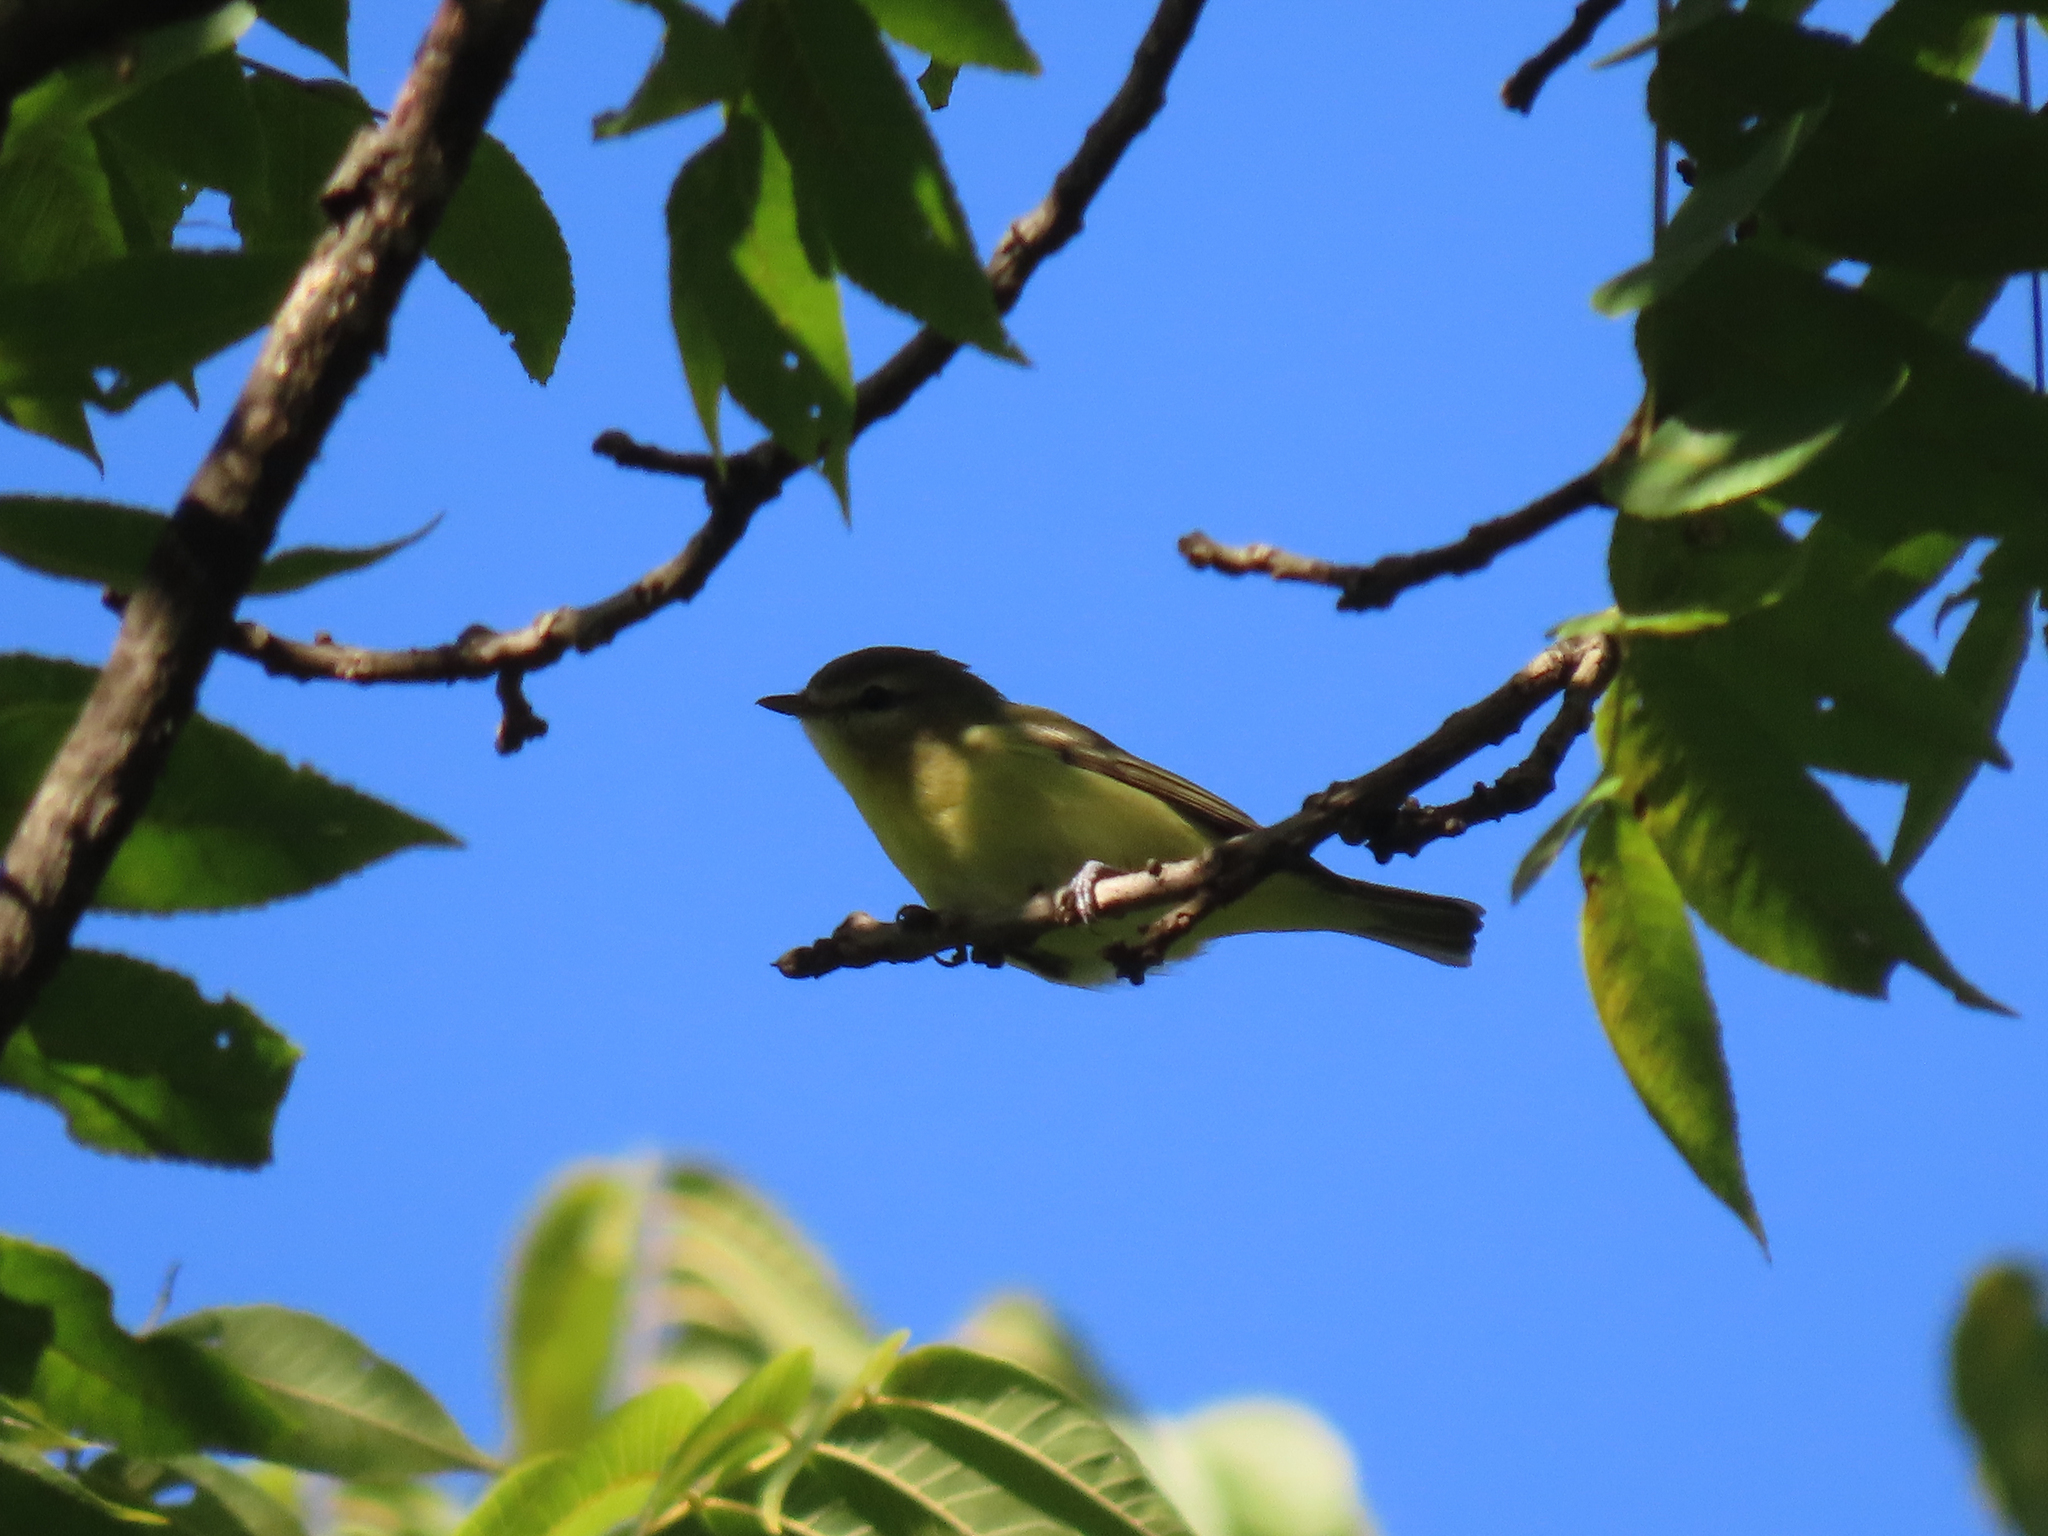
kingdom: Animalia
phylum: Chordata
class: Aves
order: Passeriformes
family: Vireonidae
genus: Vireo
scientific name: Vireo philadelphicus
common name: Philadelphia vireo
